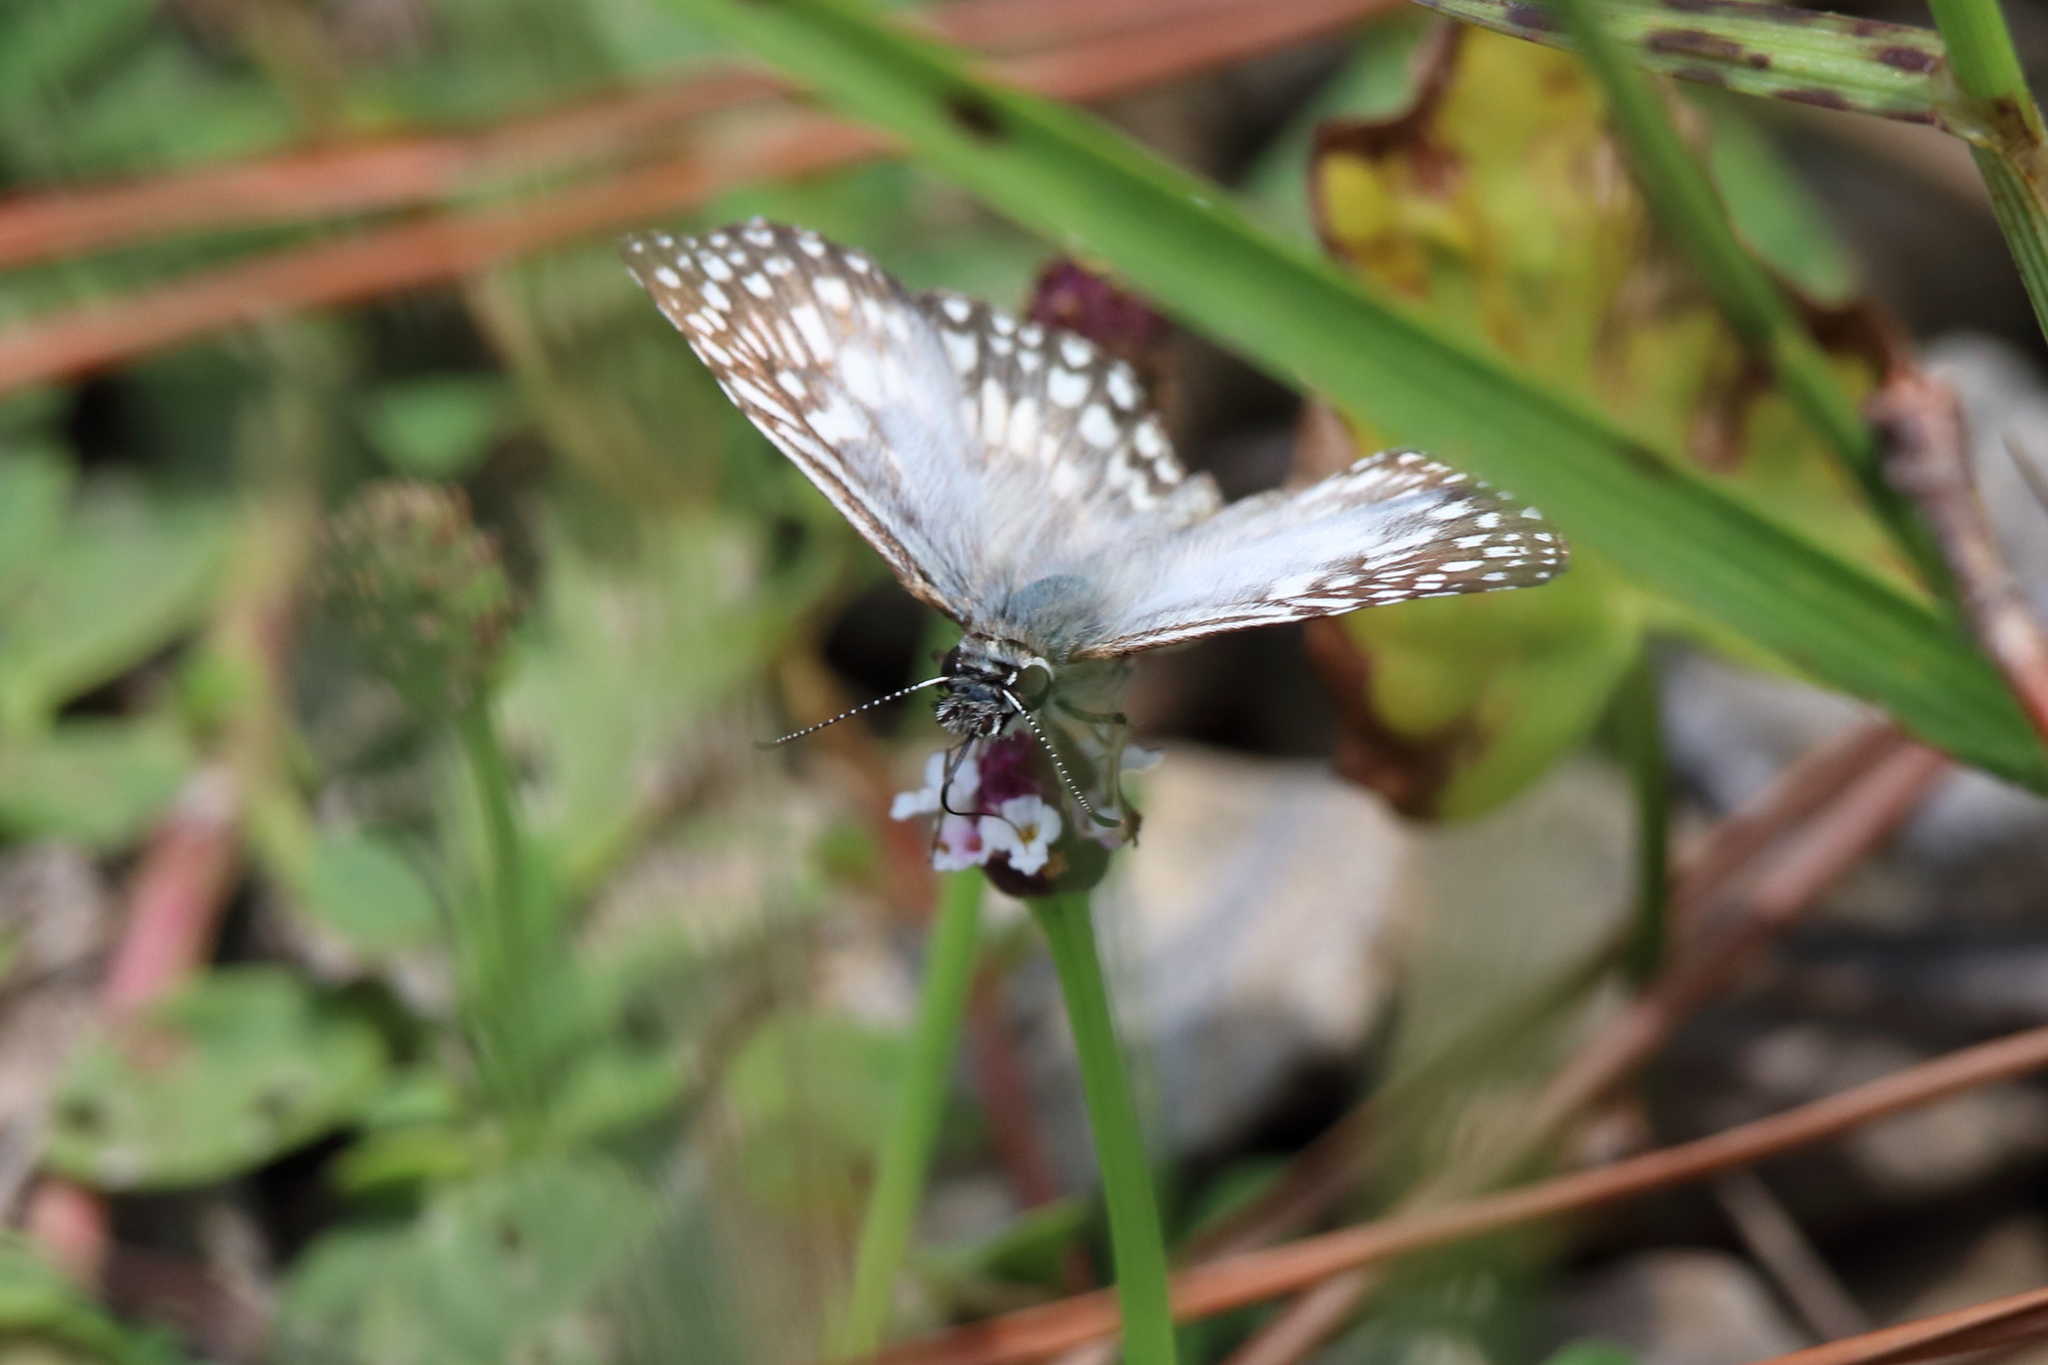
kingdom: Animalia
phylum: Arthropoda
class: Insecta
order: Lepidoptera
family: Hesperiidae
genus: Pyrgus
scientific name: Pyrgus oileus
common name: Tropical checkered-skipper
